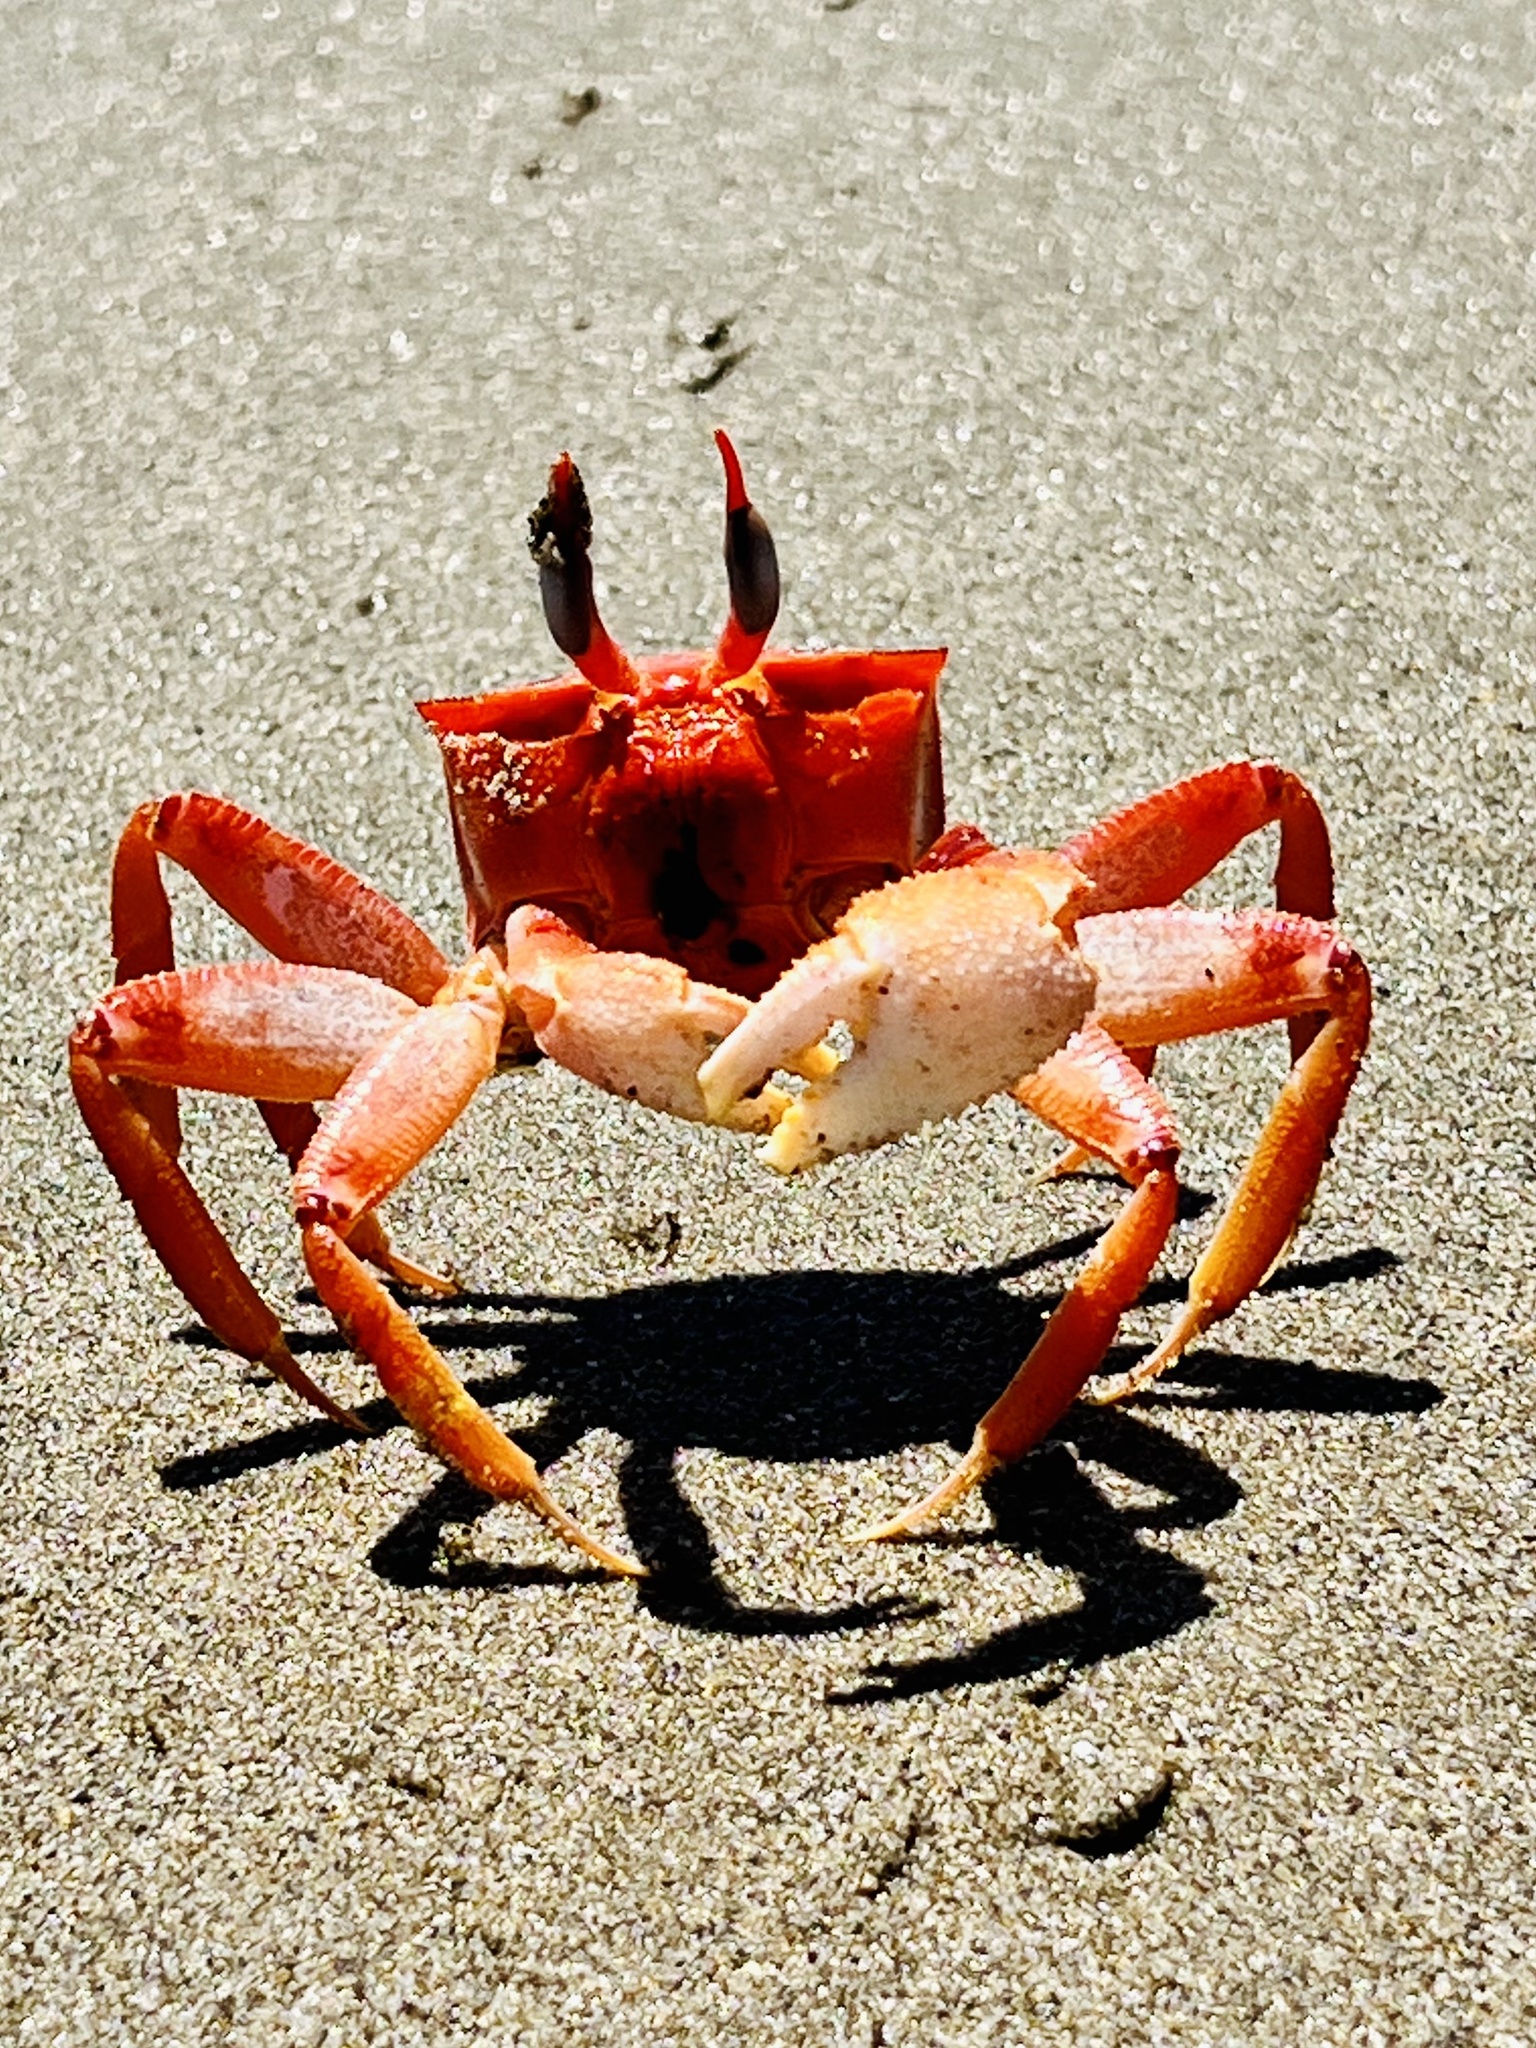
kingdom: Animalia
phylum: Arthropoda
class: Malacostraca
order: Decapoda
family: Ocypodidae
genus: Ocypode
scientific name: Ocypode gaudichaudii
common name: Pacific ghost crab
